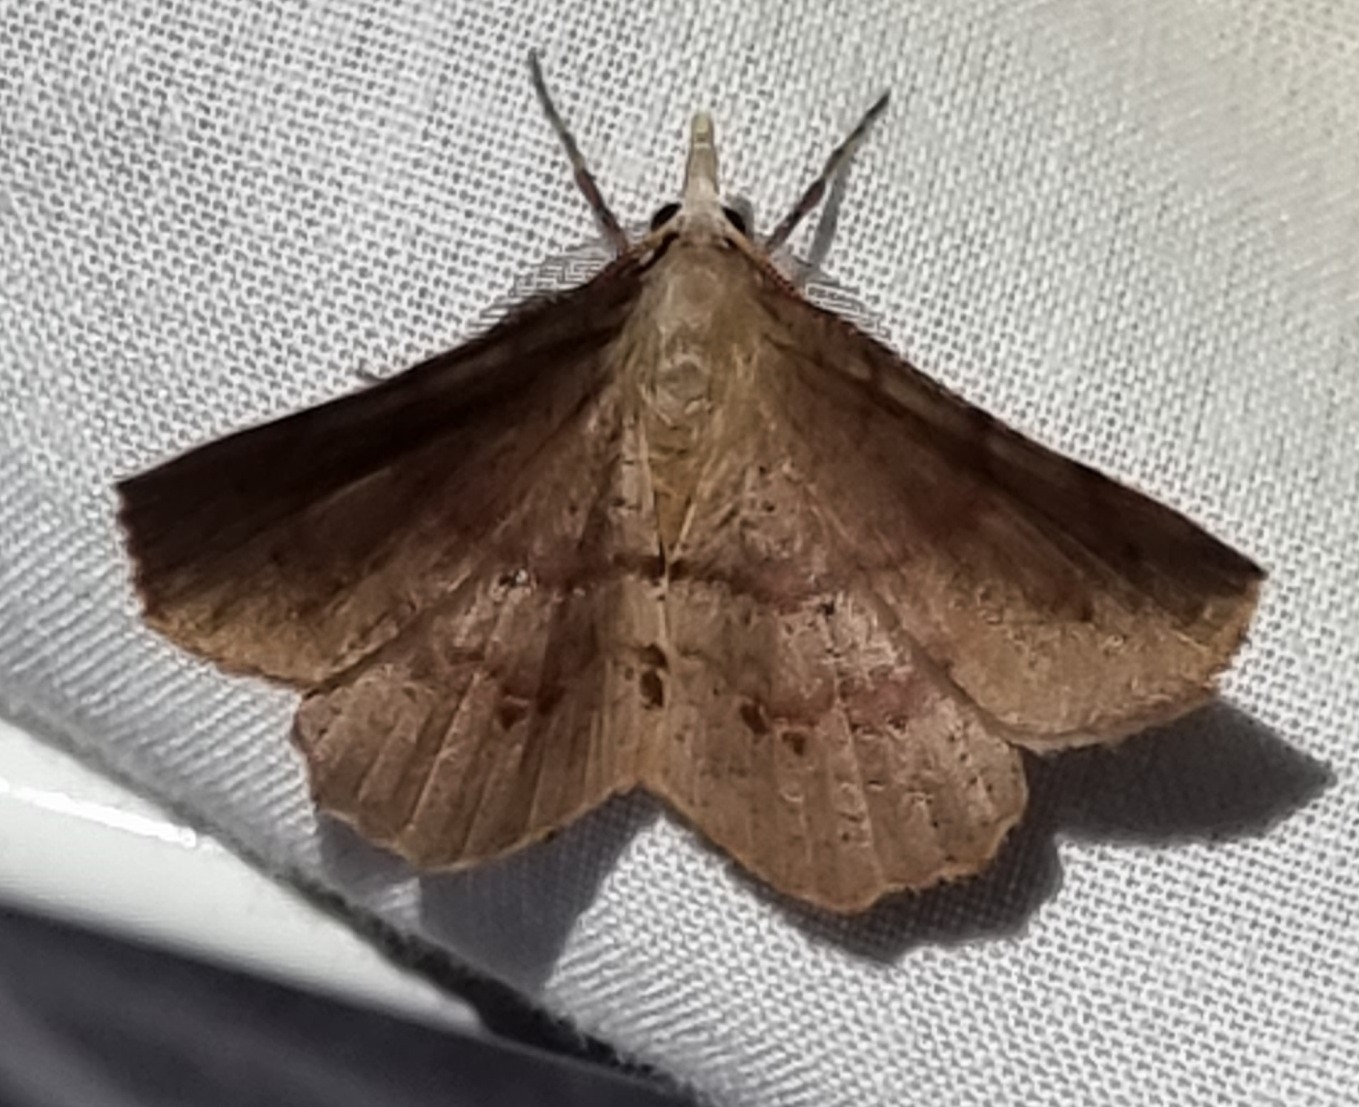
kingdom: Animalia
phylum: Arthropoda
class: Insecta
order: Lepidoptera
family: Geometridae
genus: Rhinodia
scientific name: Rhinodia rostraria
